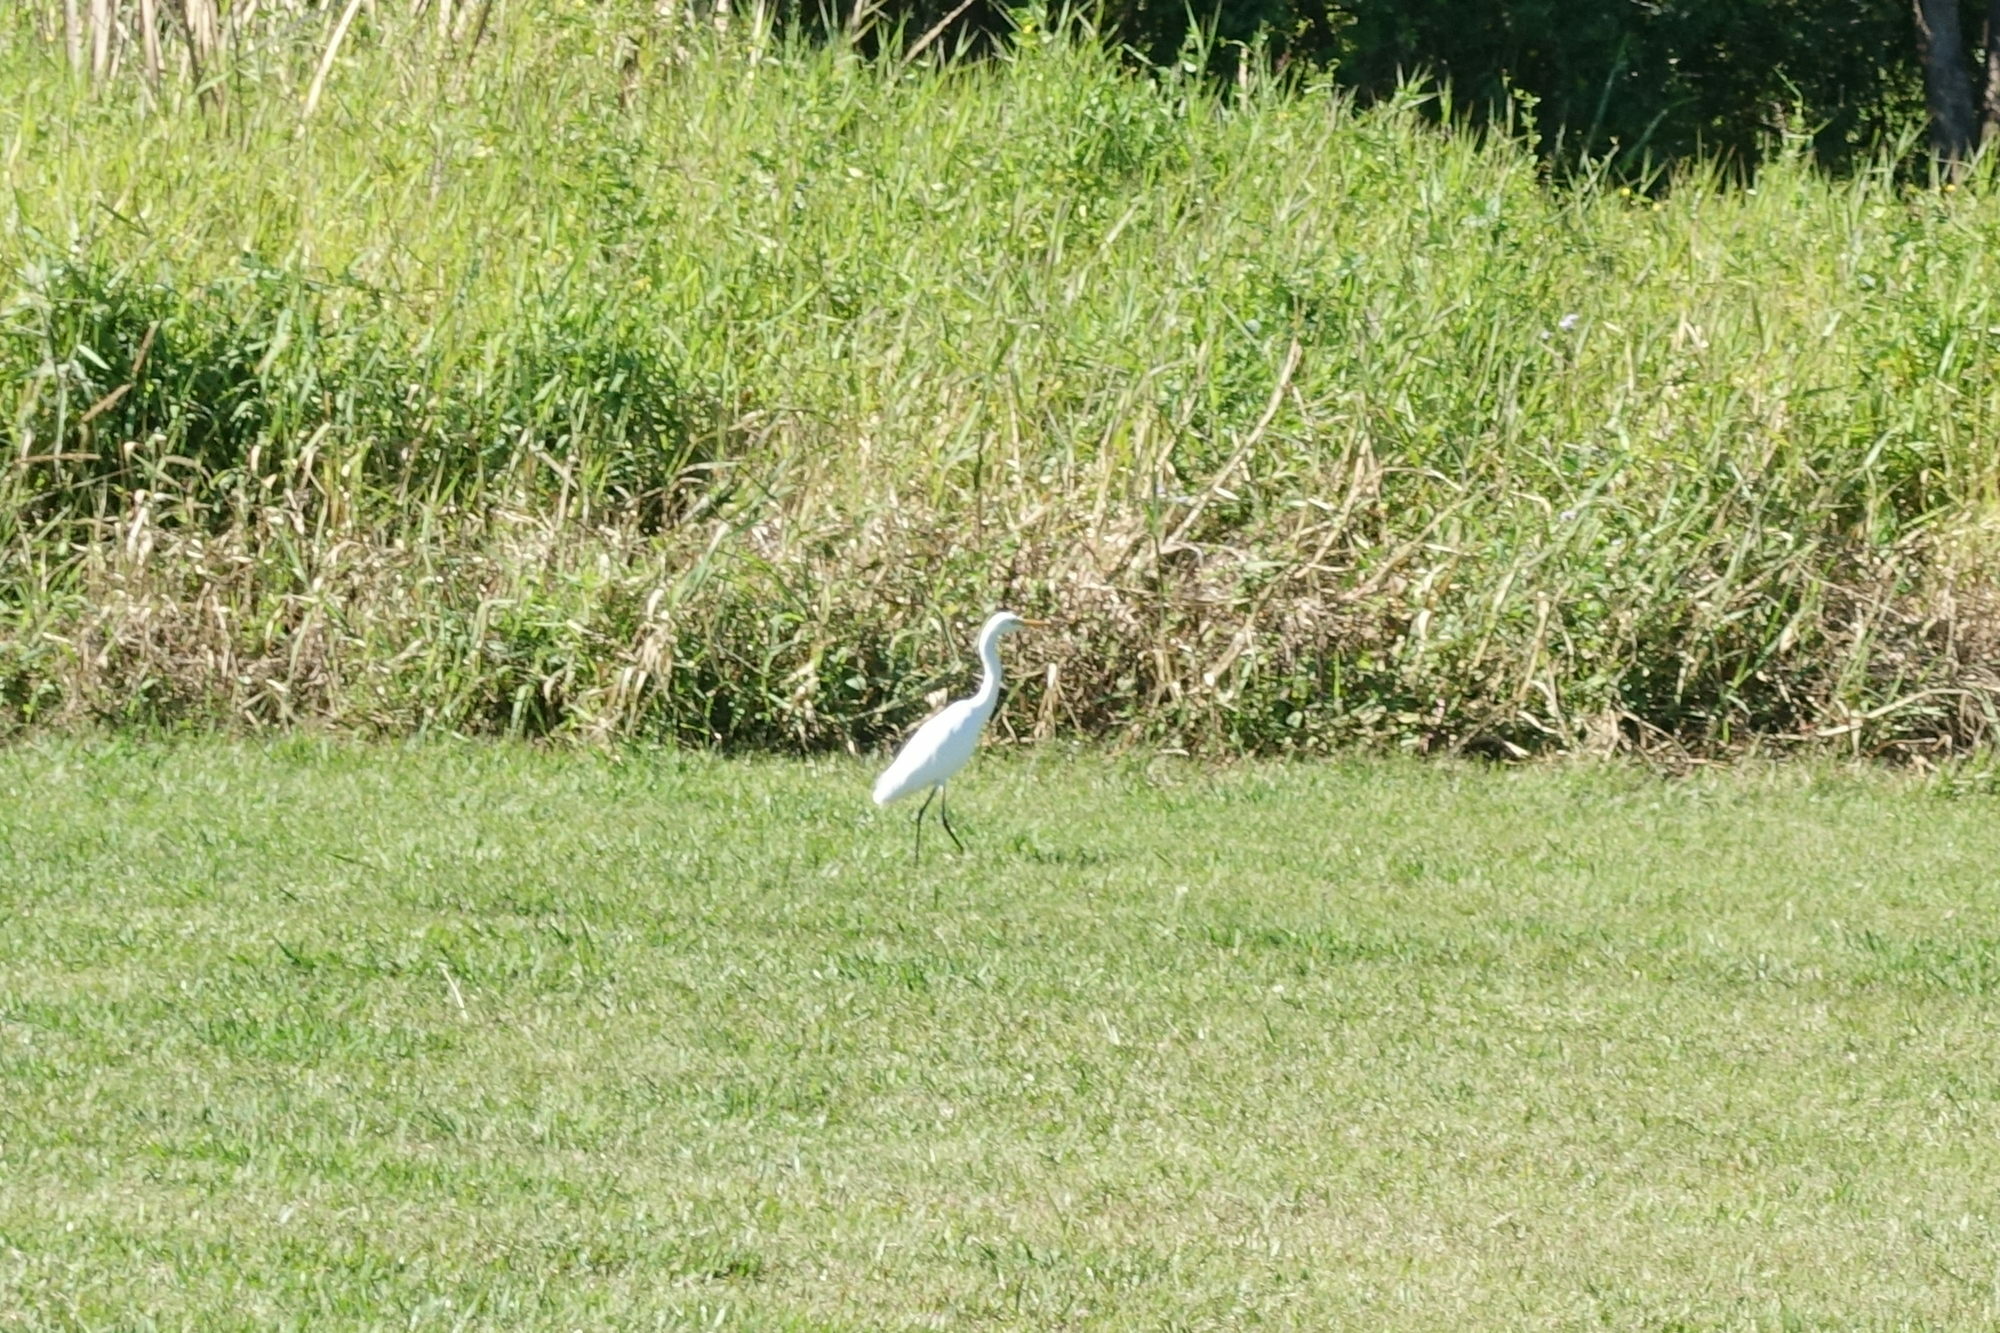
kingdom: Animalia
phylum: Chordata
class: Aves
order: Pelecaniformes
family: Ardeidae
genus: Egretta
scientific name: Egretta intermedia
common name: Intermediate egret
